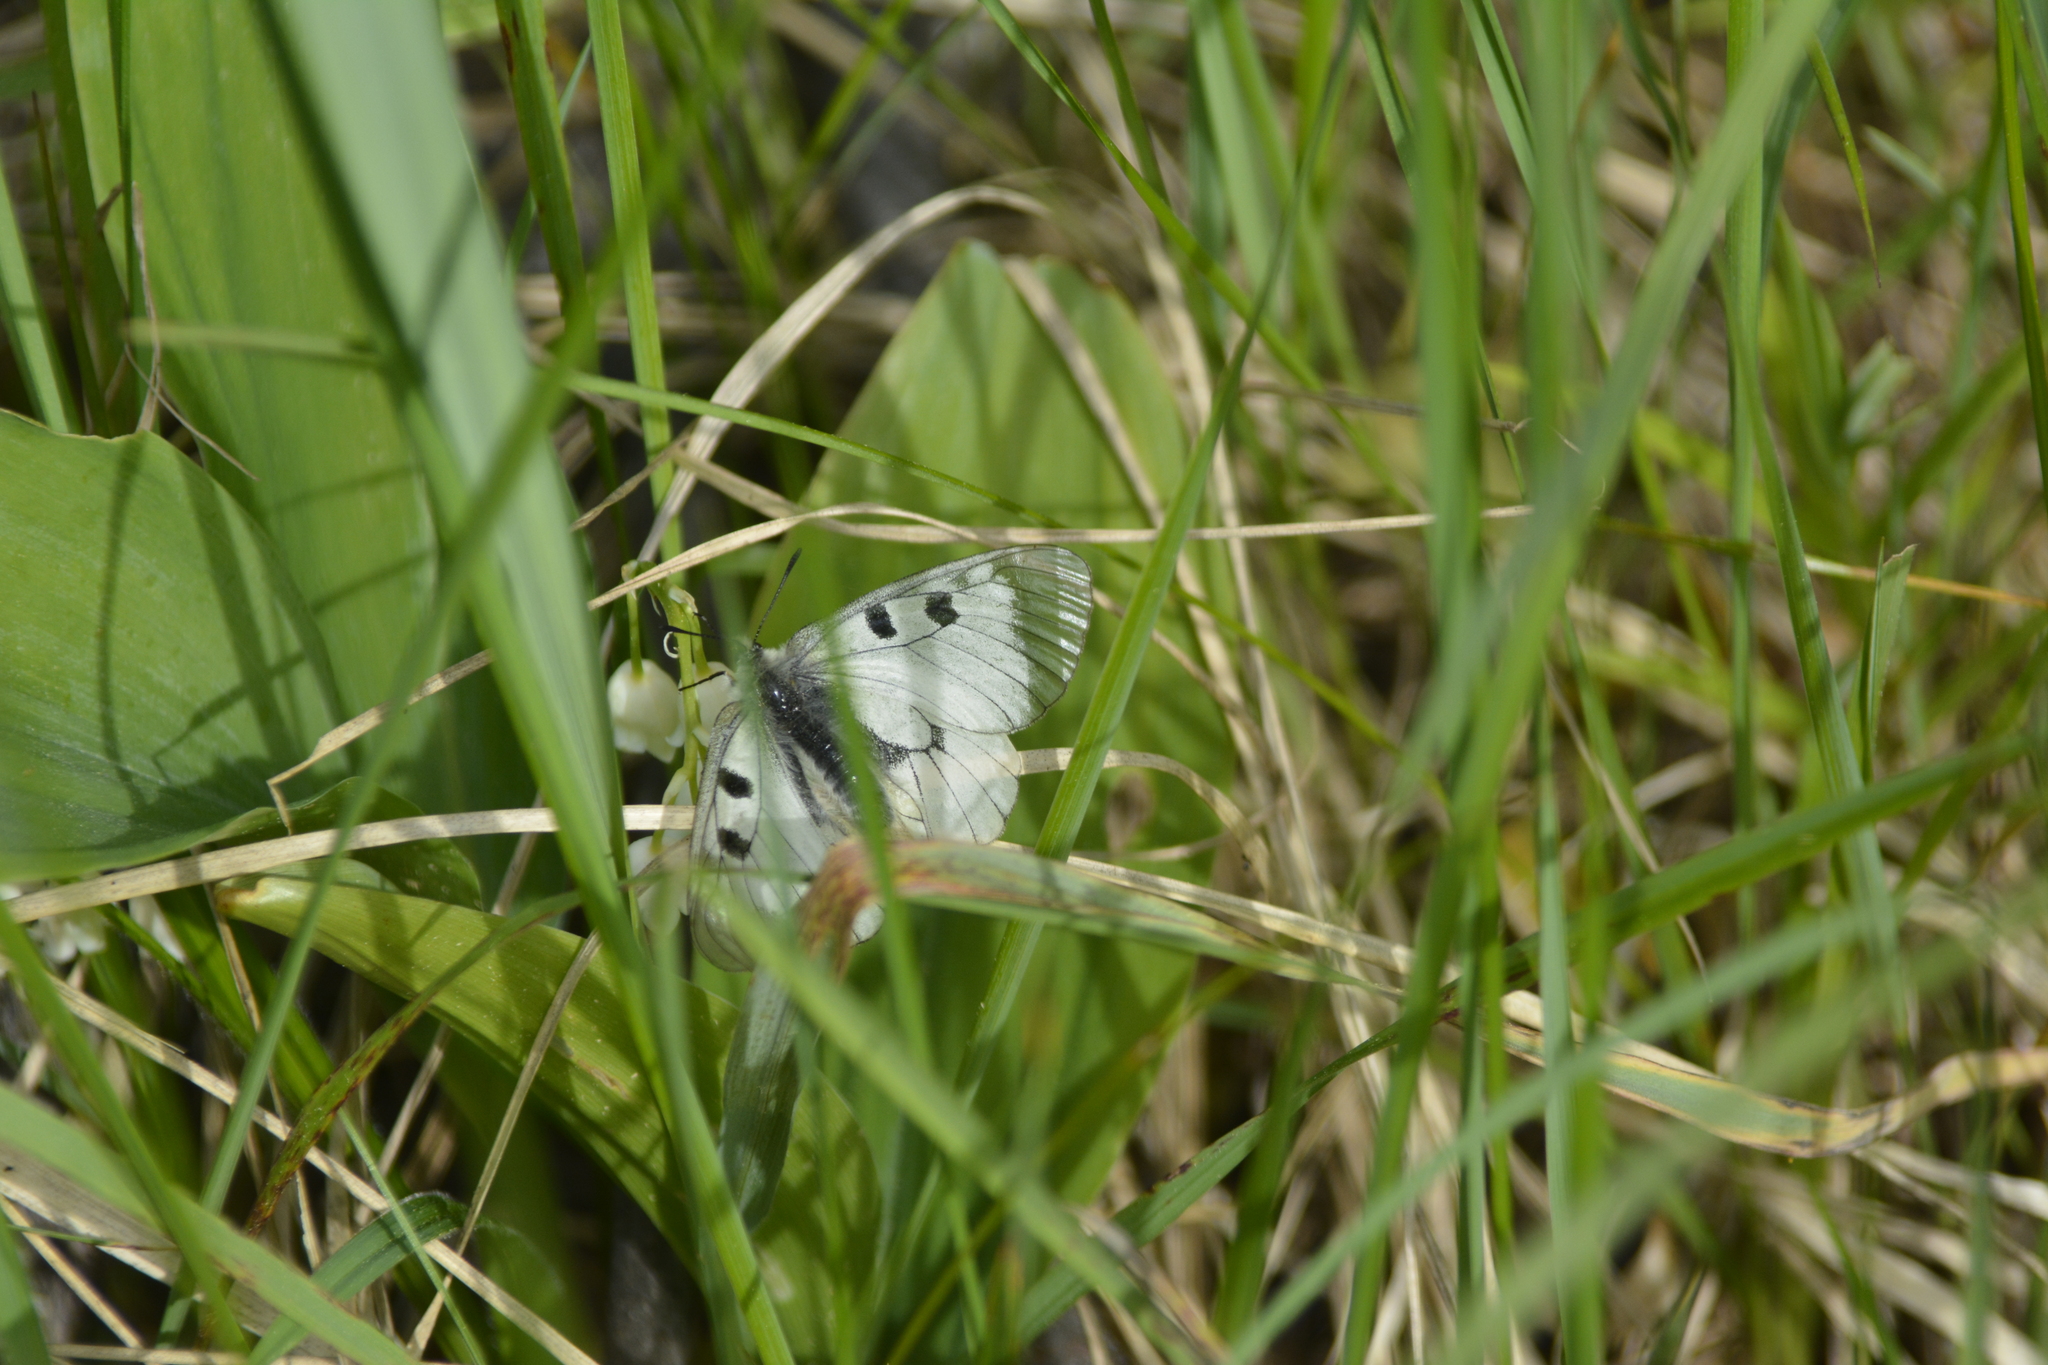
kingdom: Animalia
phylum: Arthropoda
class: Insecta
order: Lepidoptera
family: Papilionidae
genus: Parnassius
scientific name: Parnassius mnemosyne
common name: Clouded apollo
